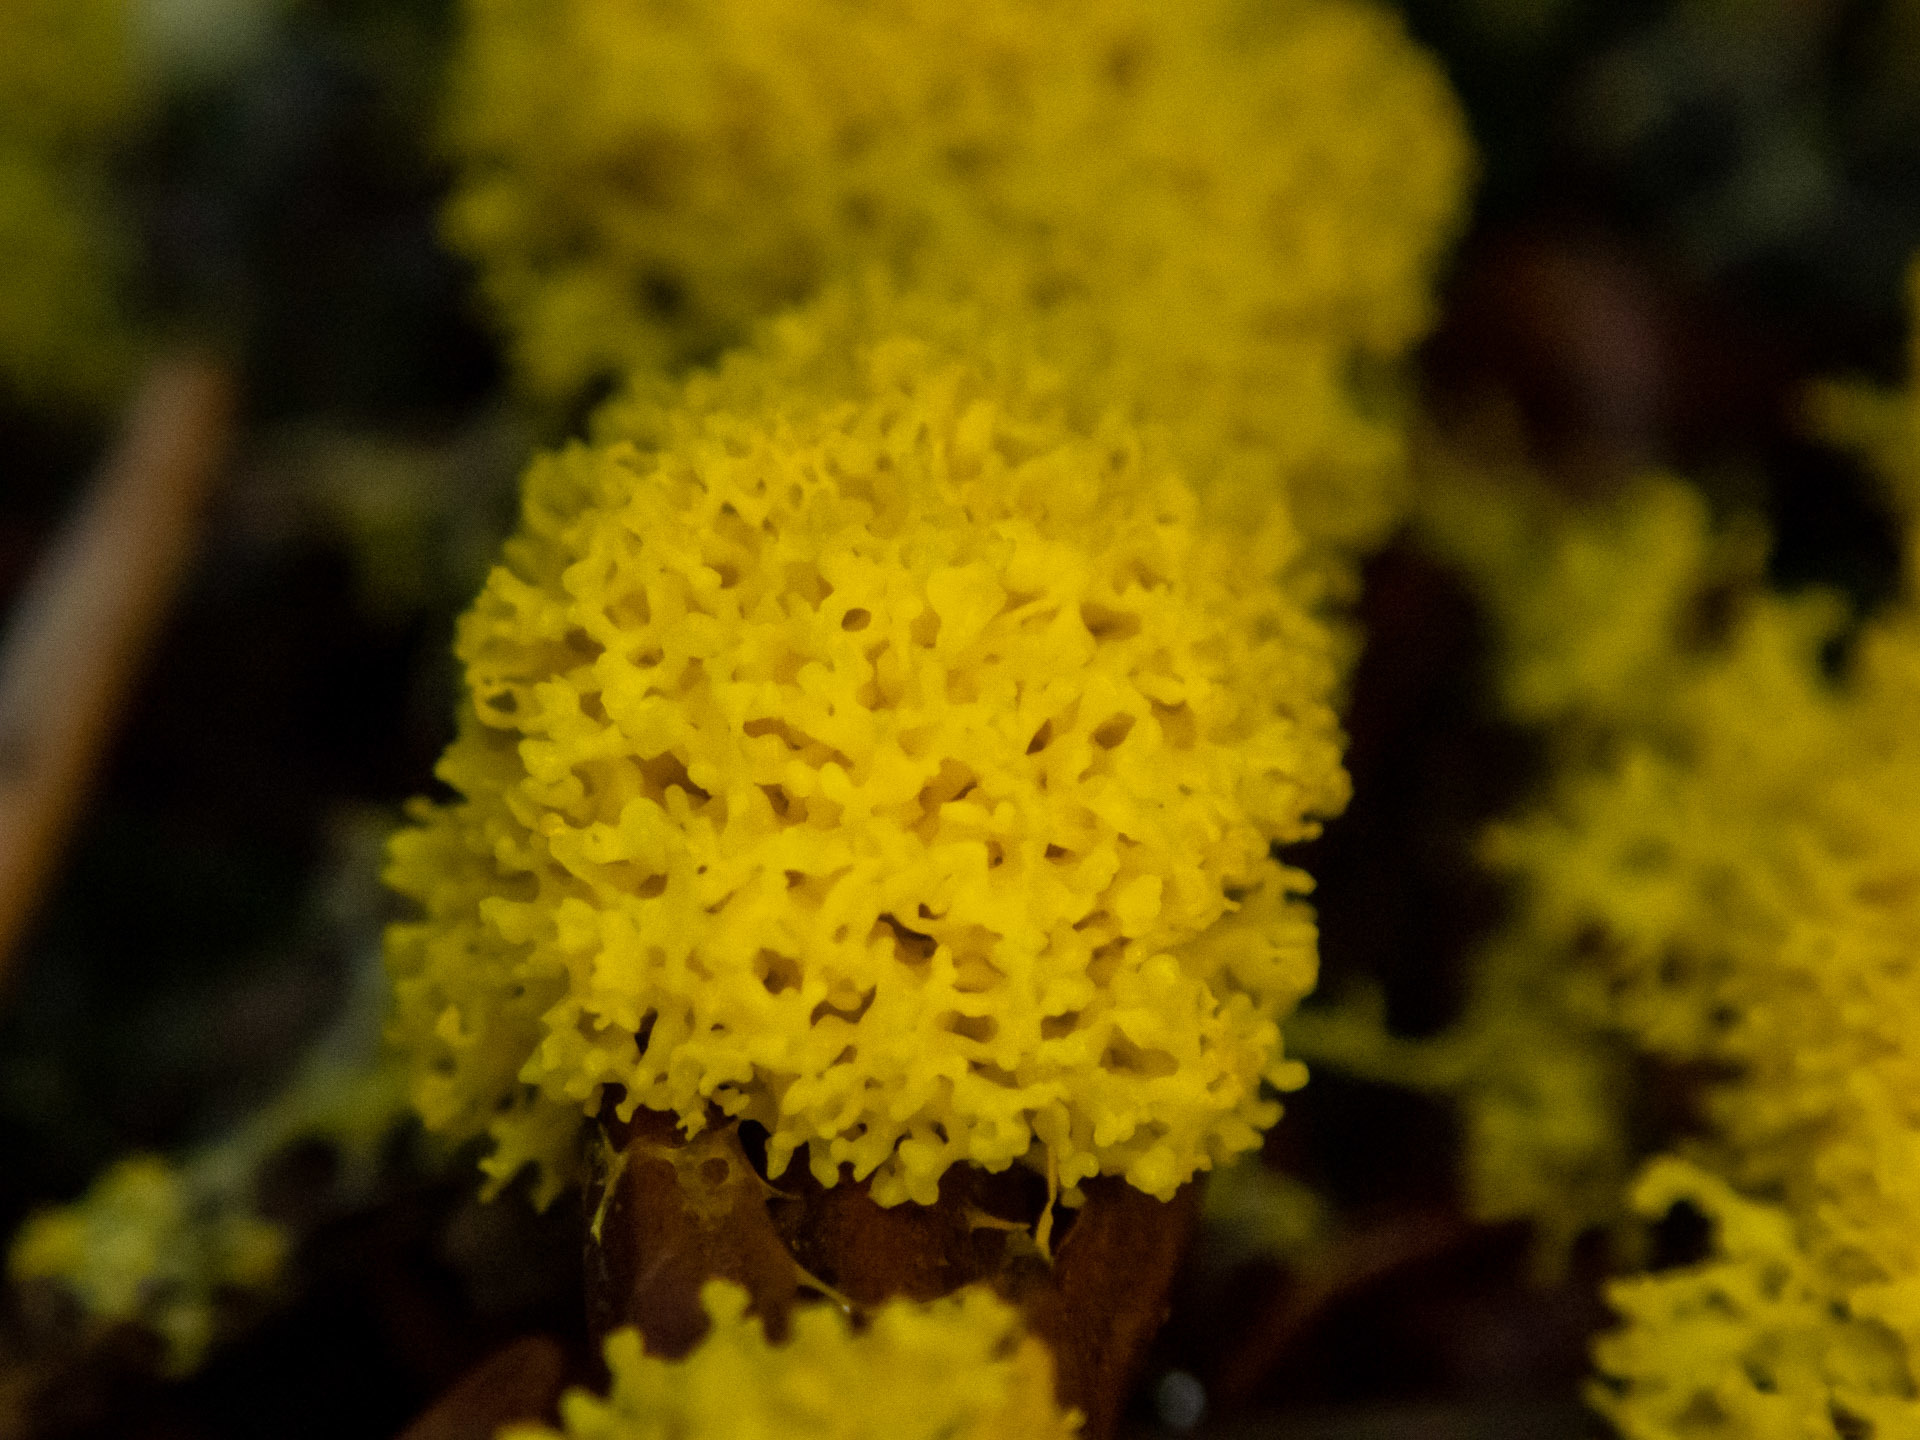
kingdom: Protozoa
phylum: Mycetozoa
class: Myxomycetes
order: Physarales
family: Physaraceae
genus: Fuligo
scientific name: Fuligo septica
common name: Dog vomit slime mold
